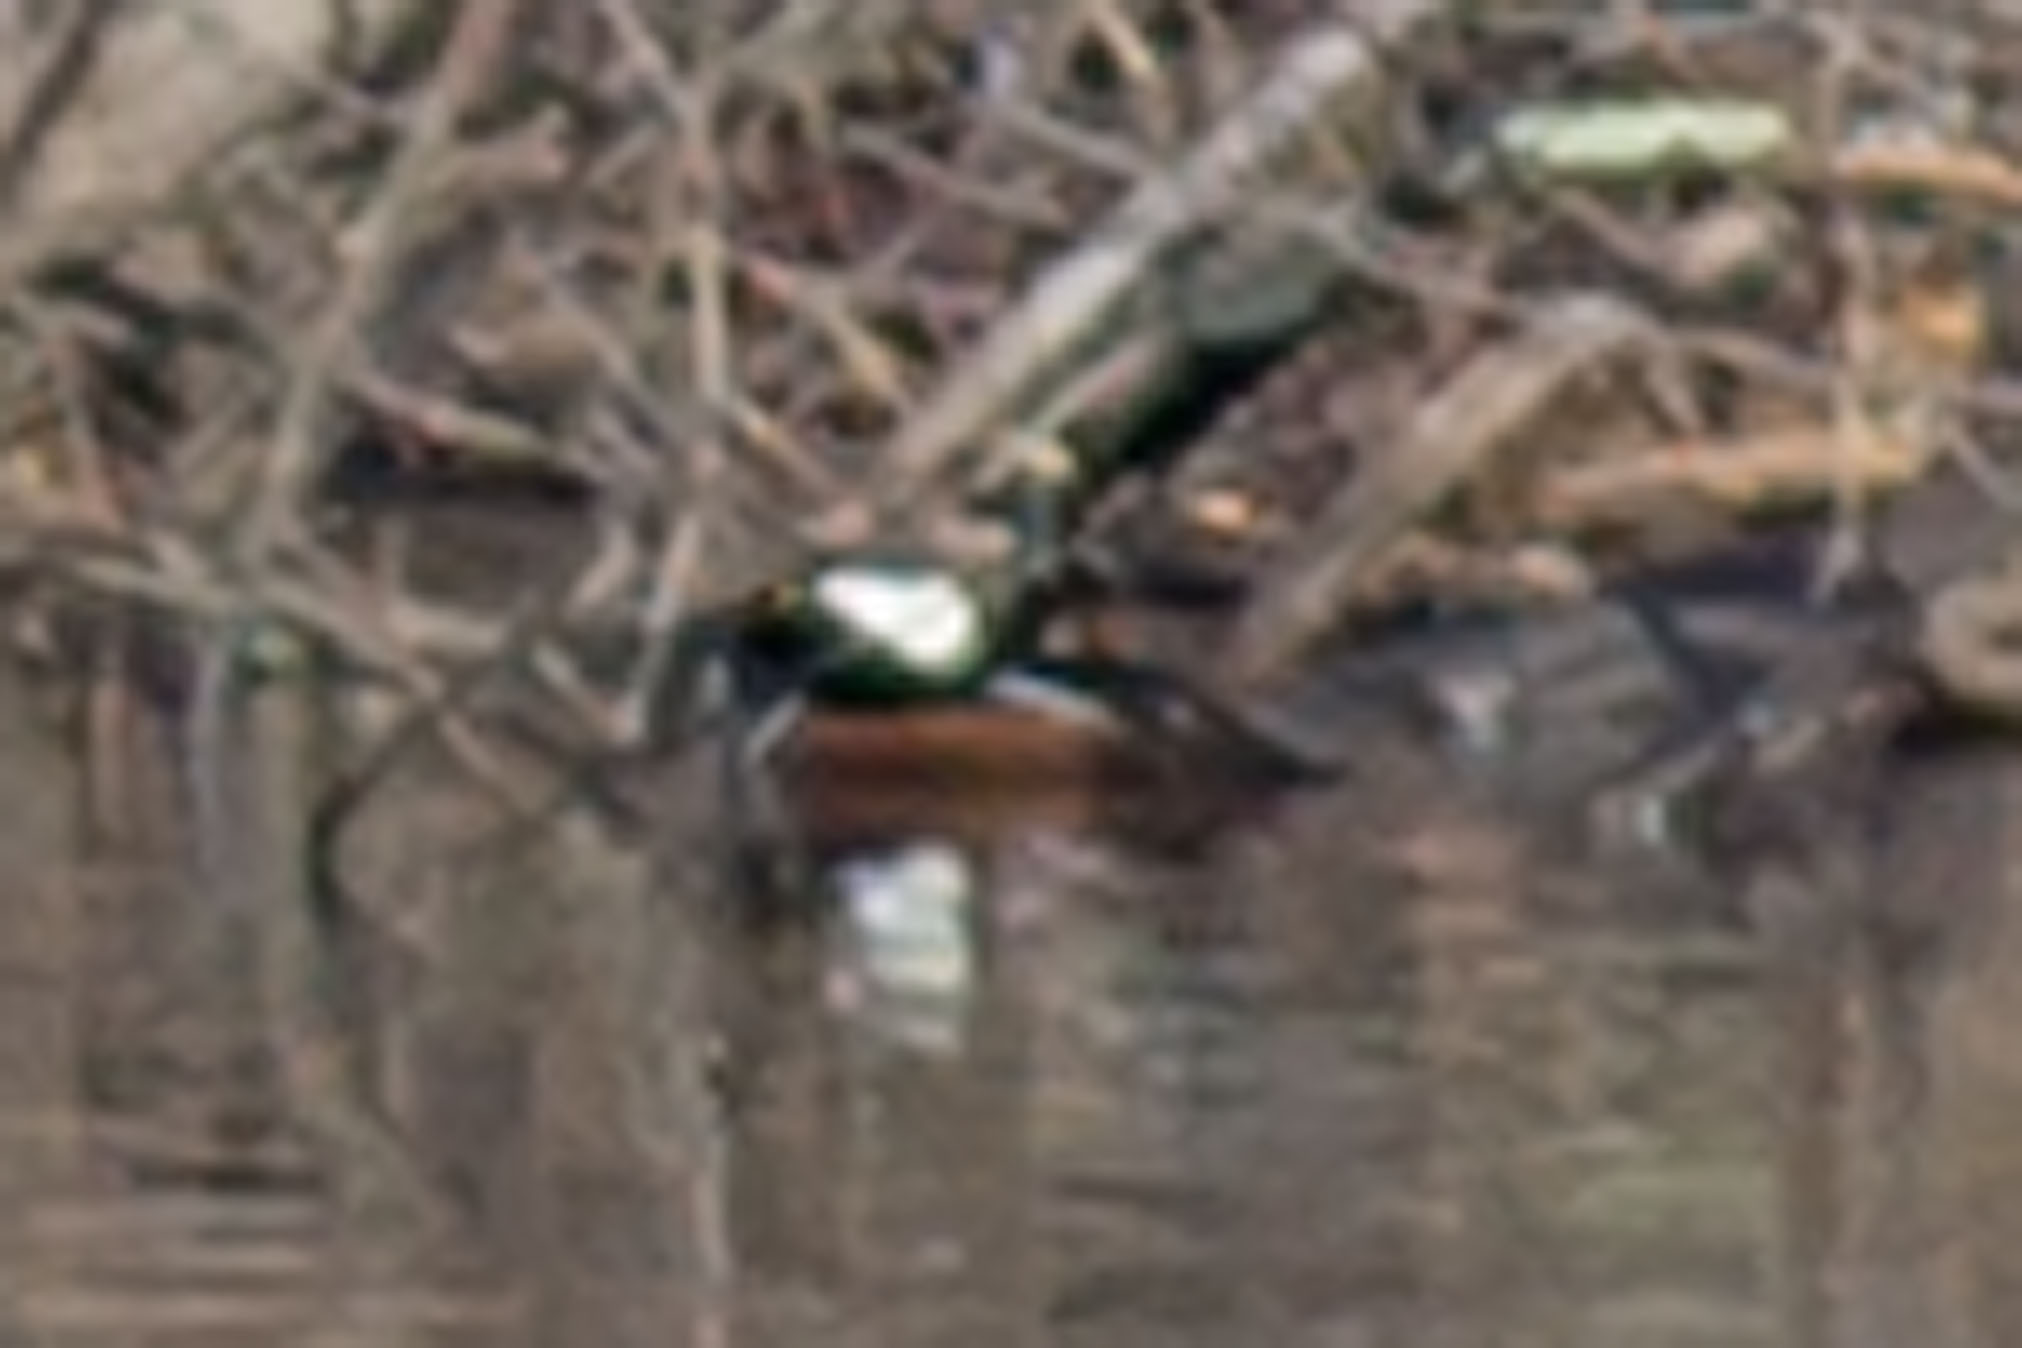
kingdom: Animalia
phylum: Chordata
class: Aves
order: Anseriformes
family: Anatidae
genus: Lophodytes
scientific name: Lophodytes cucullatus
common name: Hooded merganser
